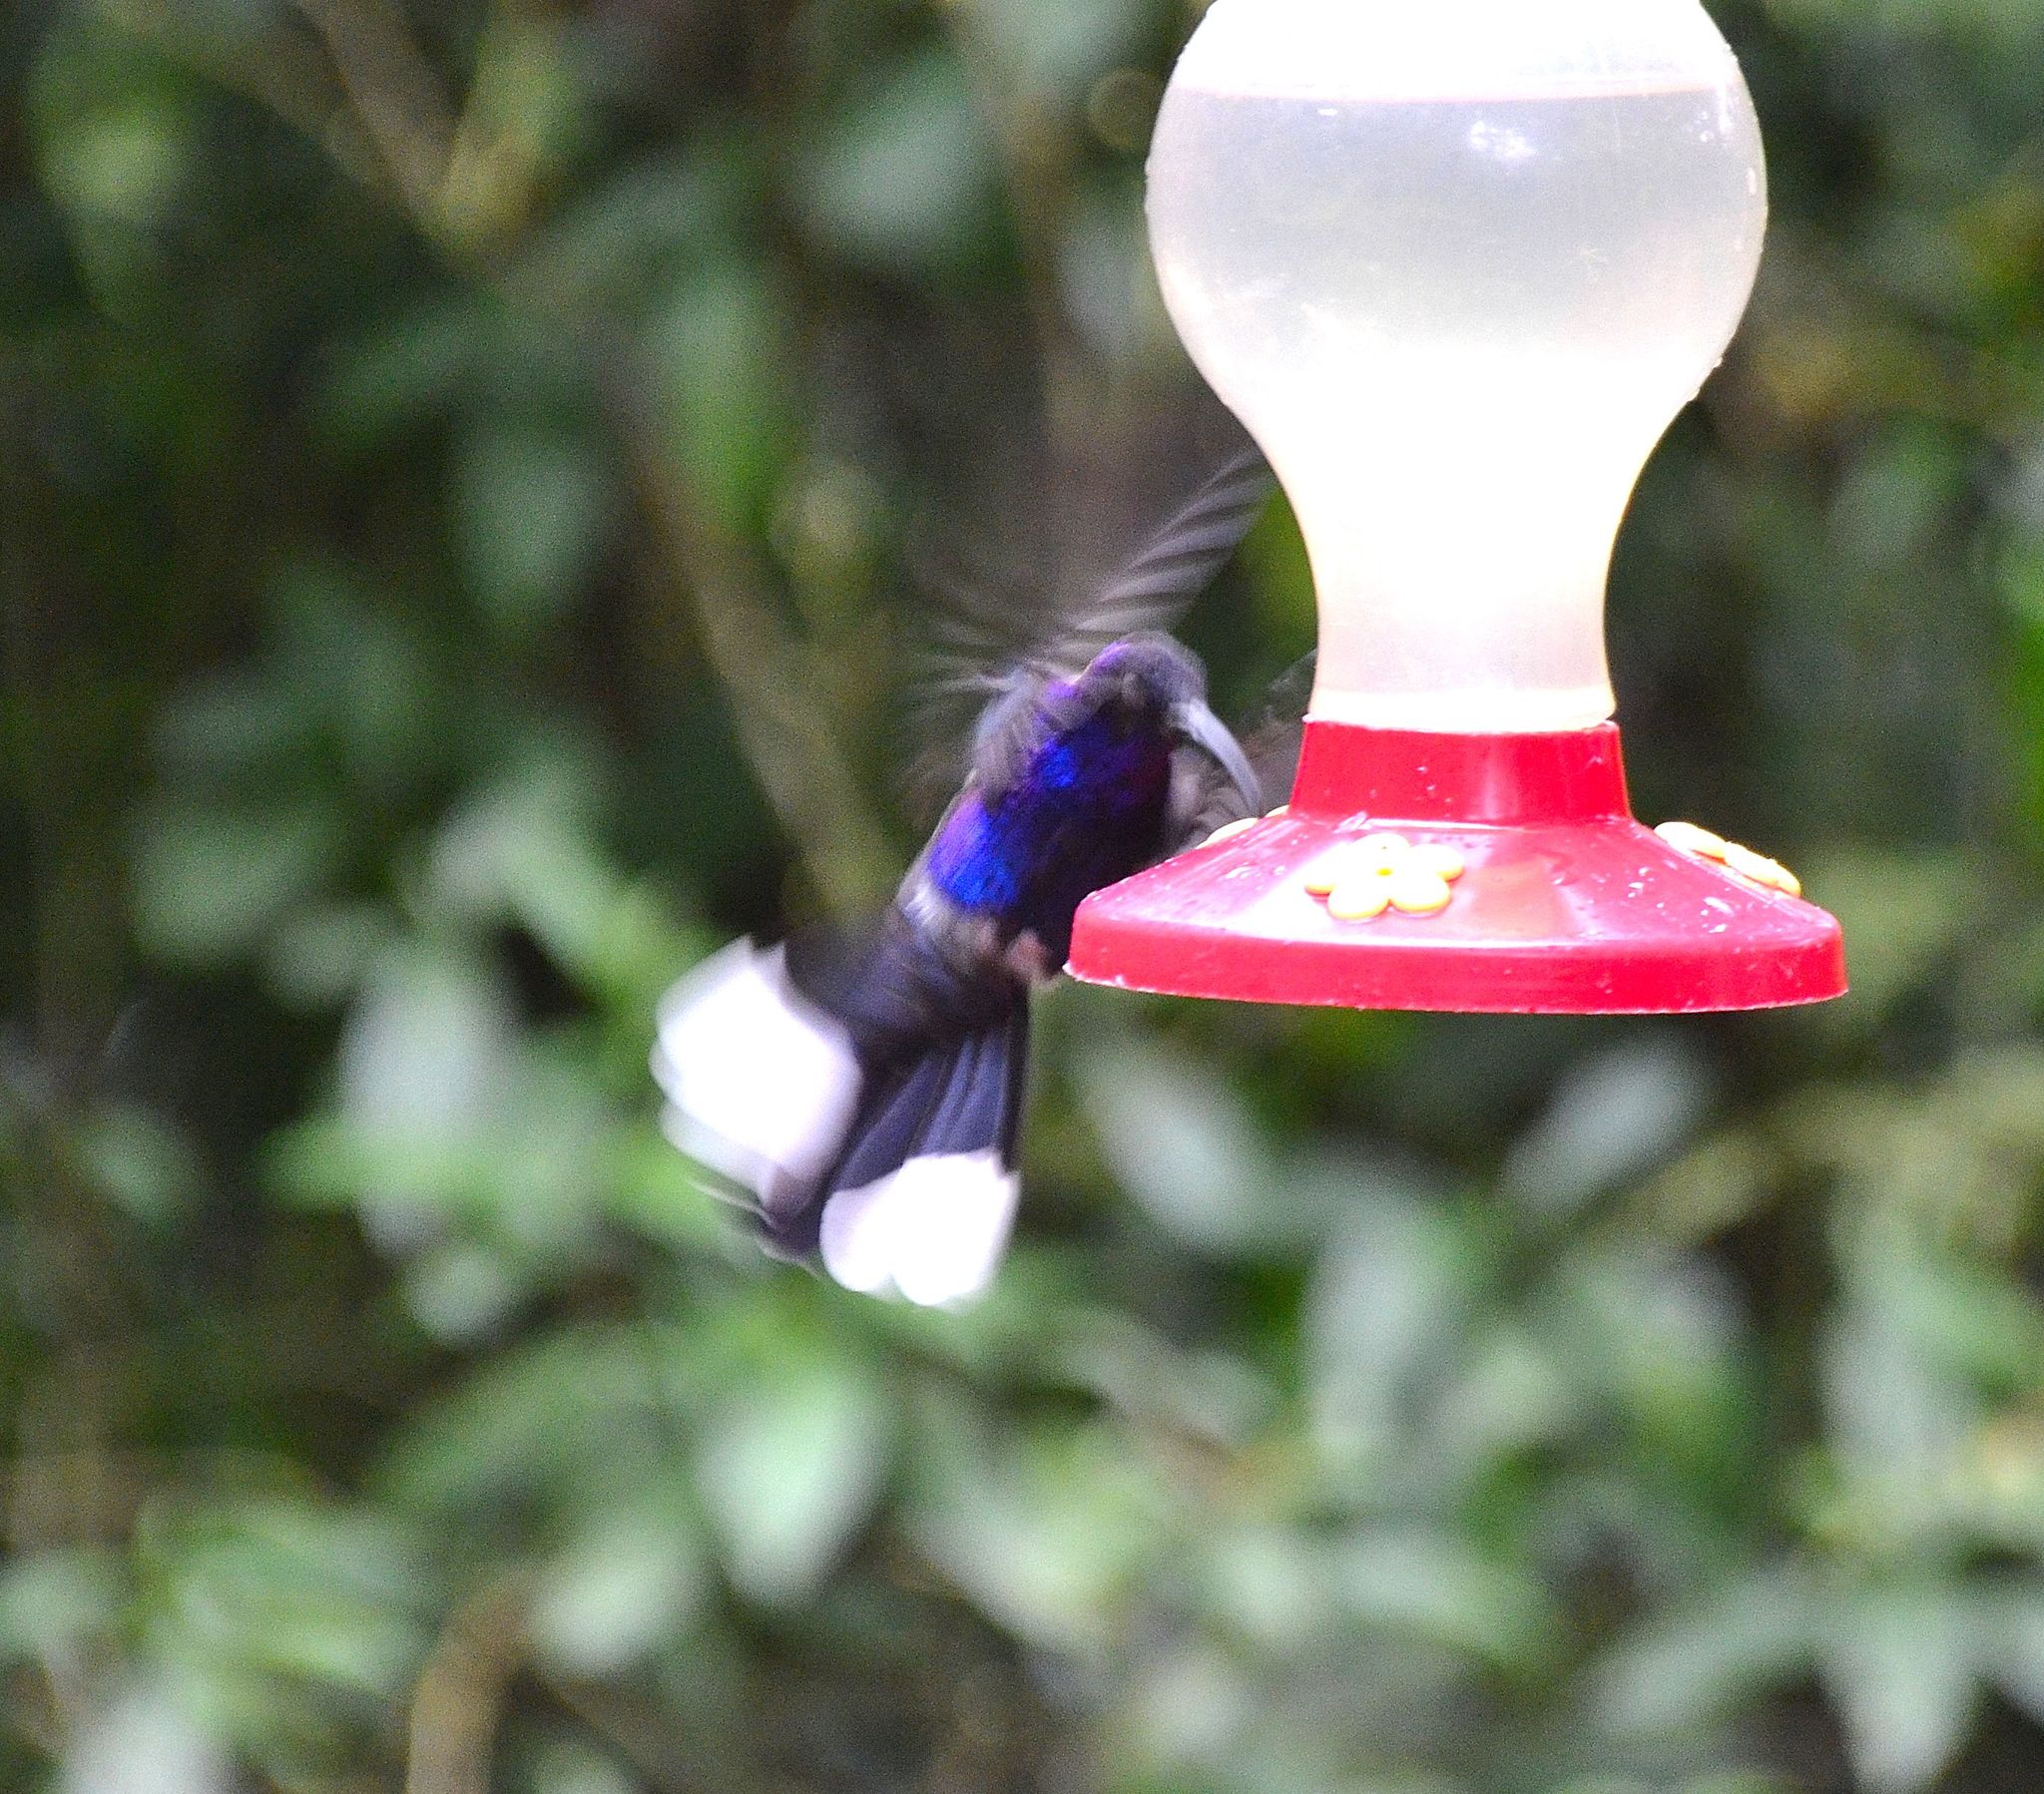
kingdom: Animalia
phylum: Chordata
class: Aves
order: Apodiformes
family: Trochilidae
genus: Campylopterus
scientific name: Campylopterus hemileucurus
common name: Violet sabrewing
